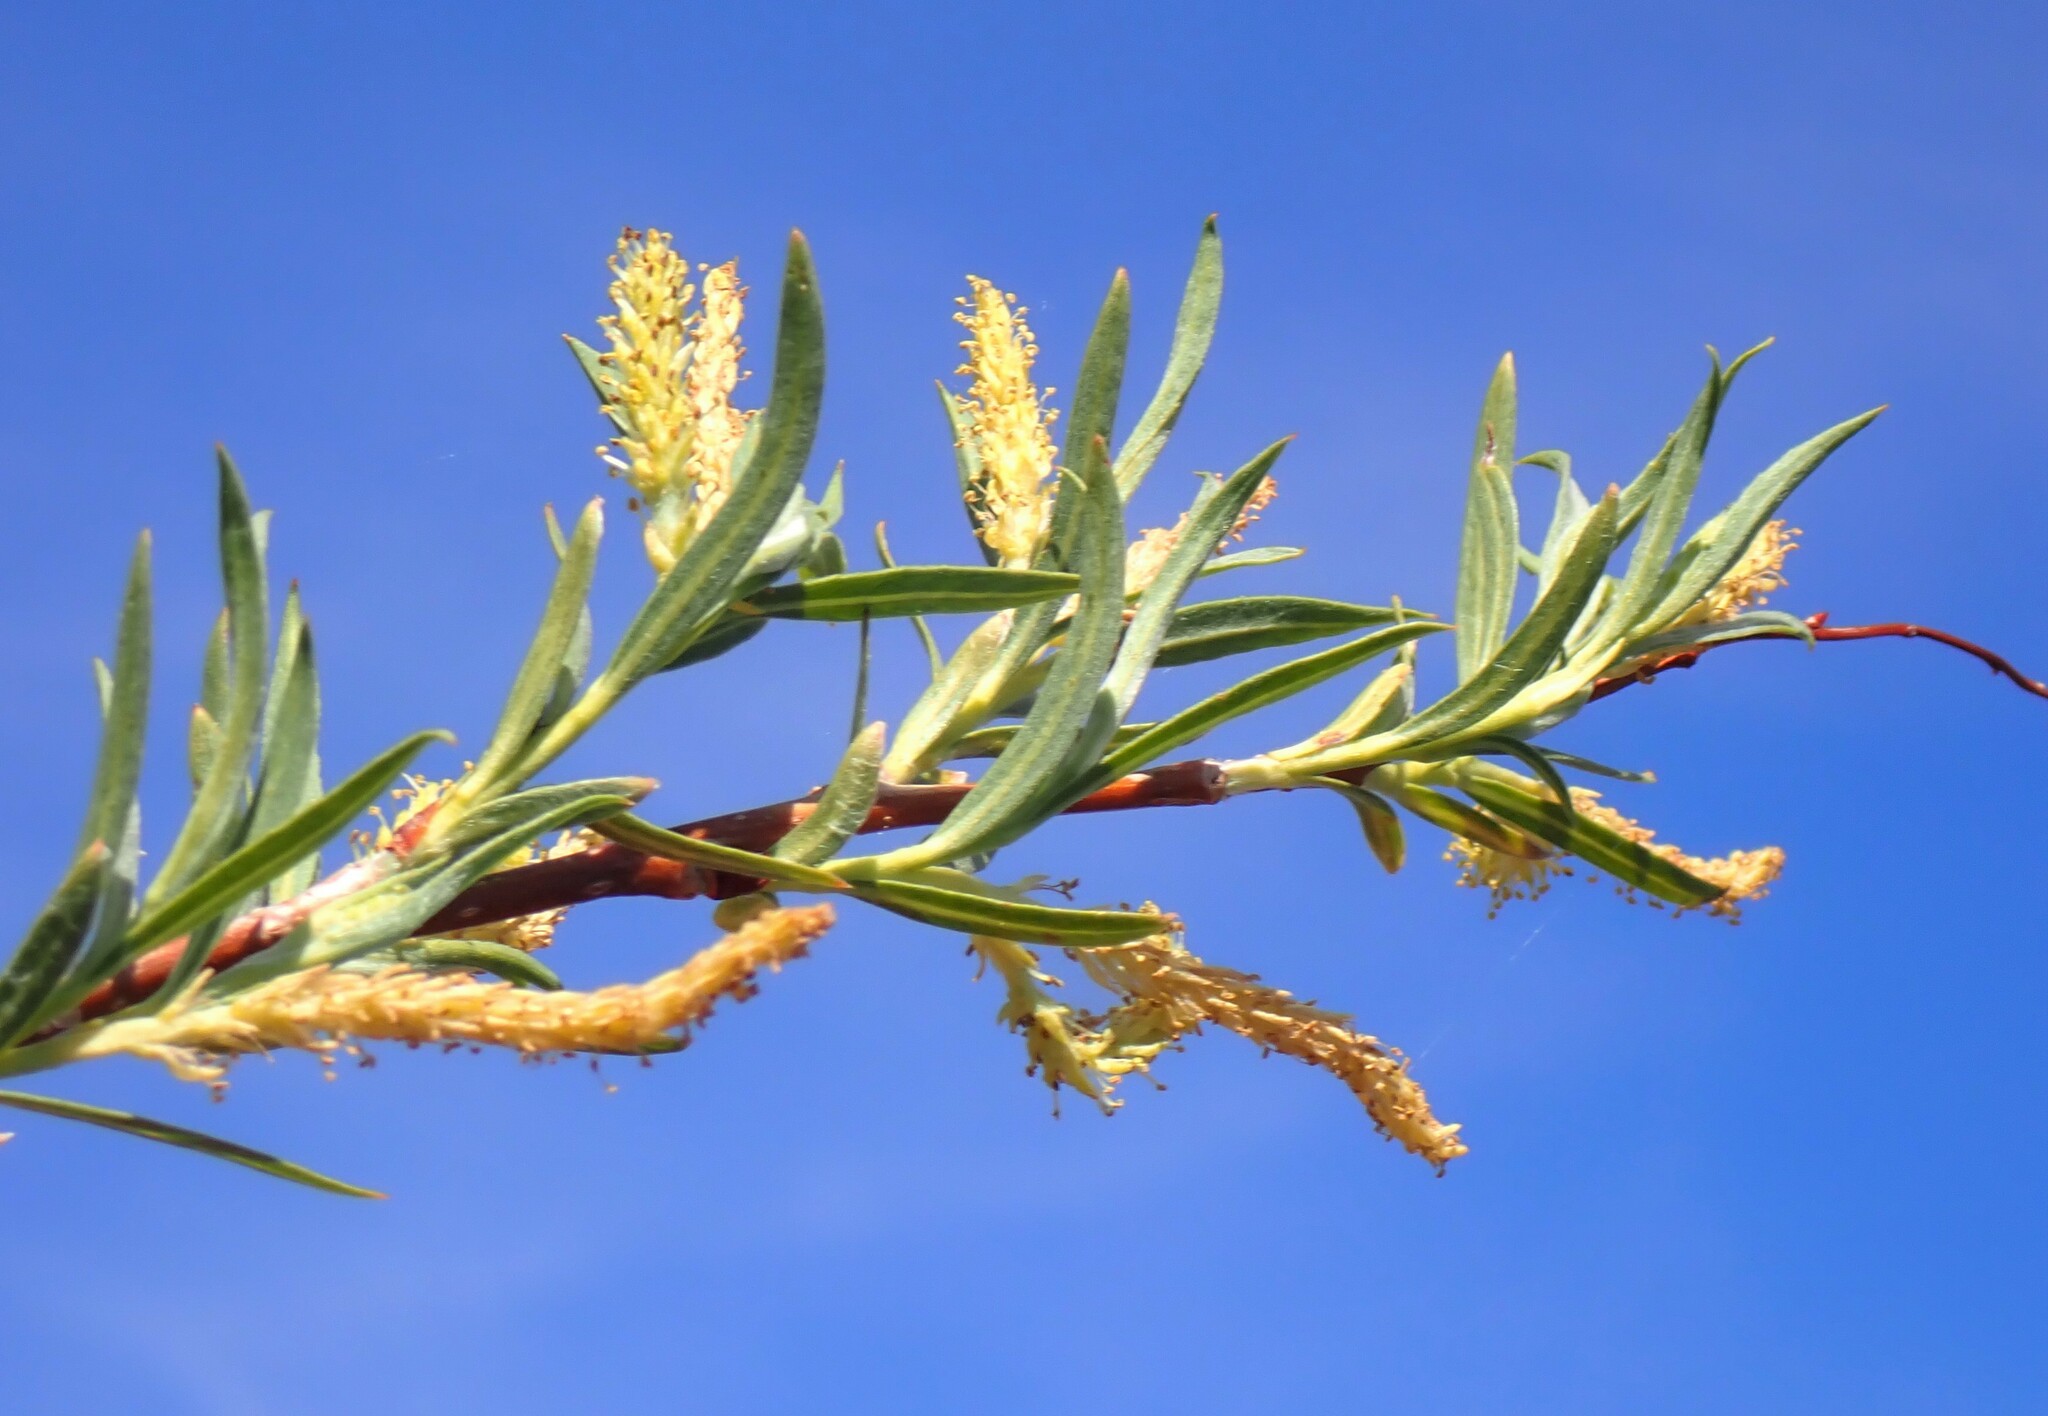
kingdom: Plantae
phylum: Tracheophyta
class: Magnoliopsida
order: Malpighiales
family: Salicaceae
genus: Salix
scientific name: Salix interior
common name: Sandbar willow
